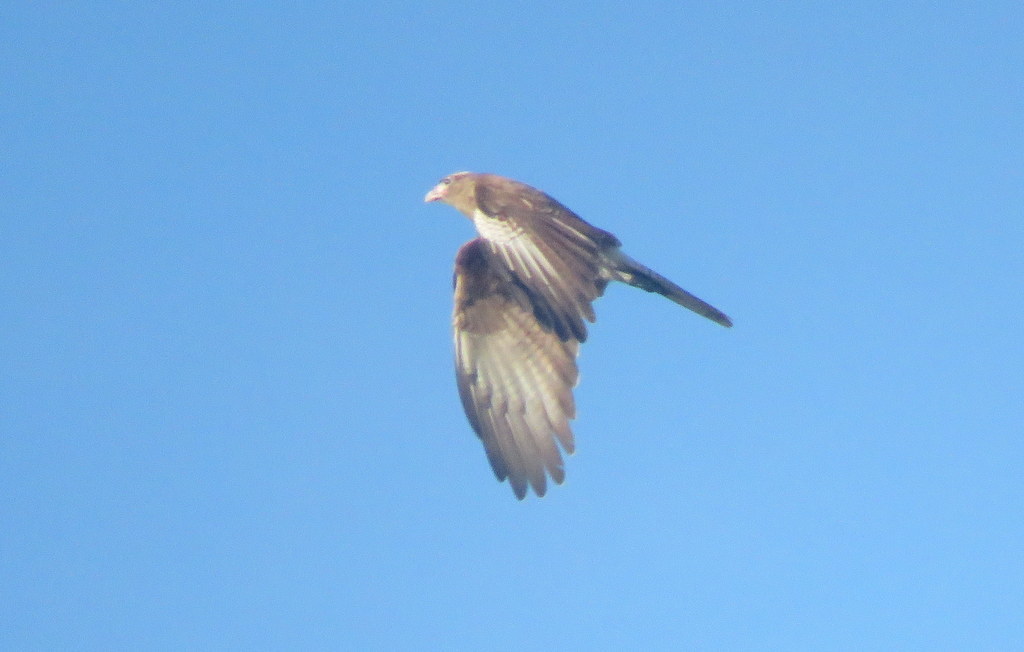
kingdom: Animalia
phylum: Chordata
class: Aves
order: Falconiformes
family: Falconidae
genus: Daptrius
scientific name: Daptrius
